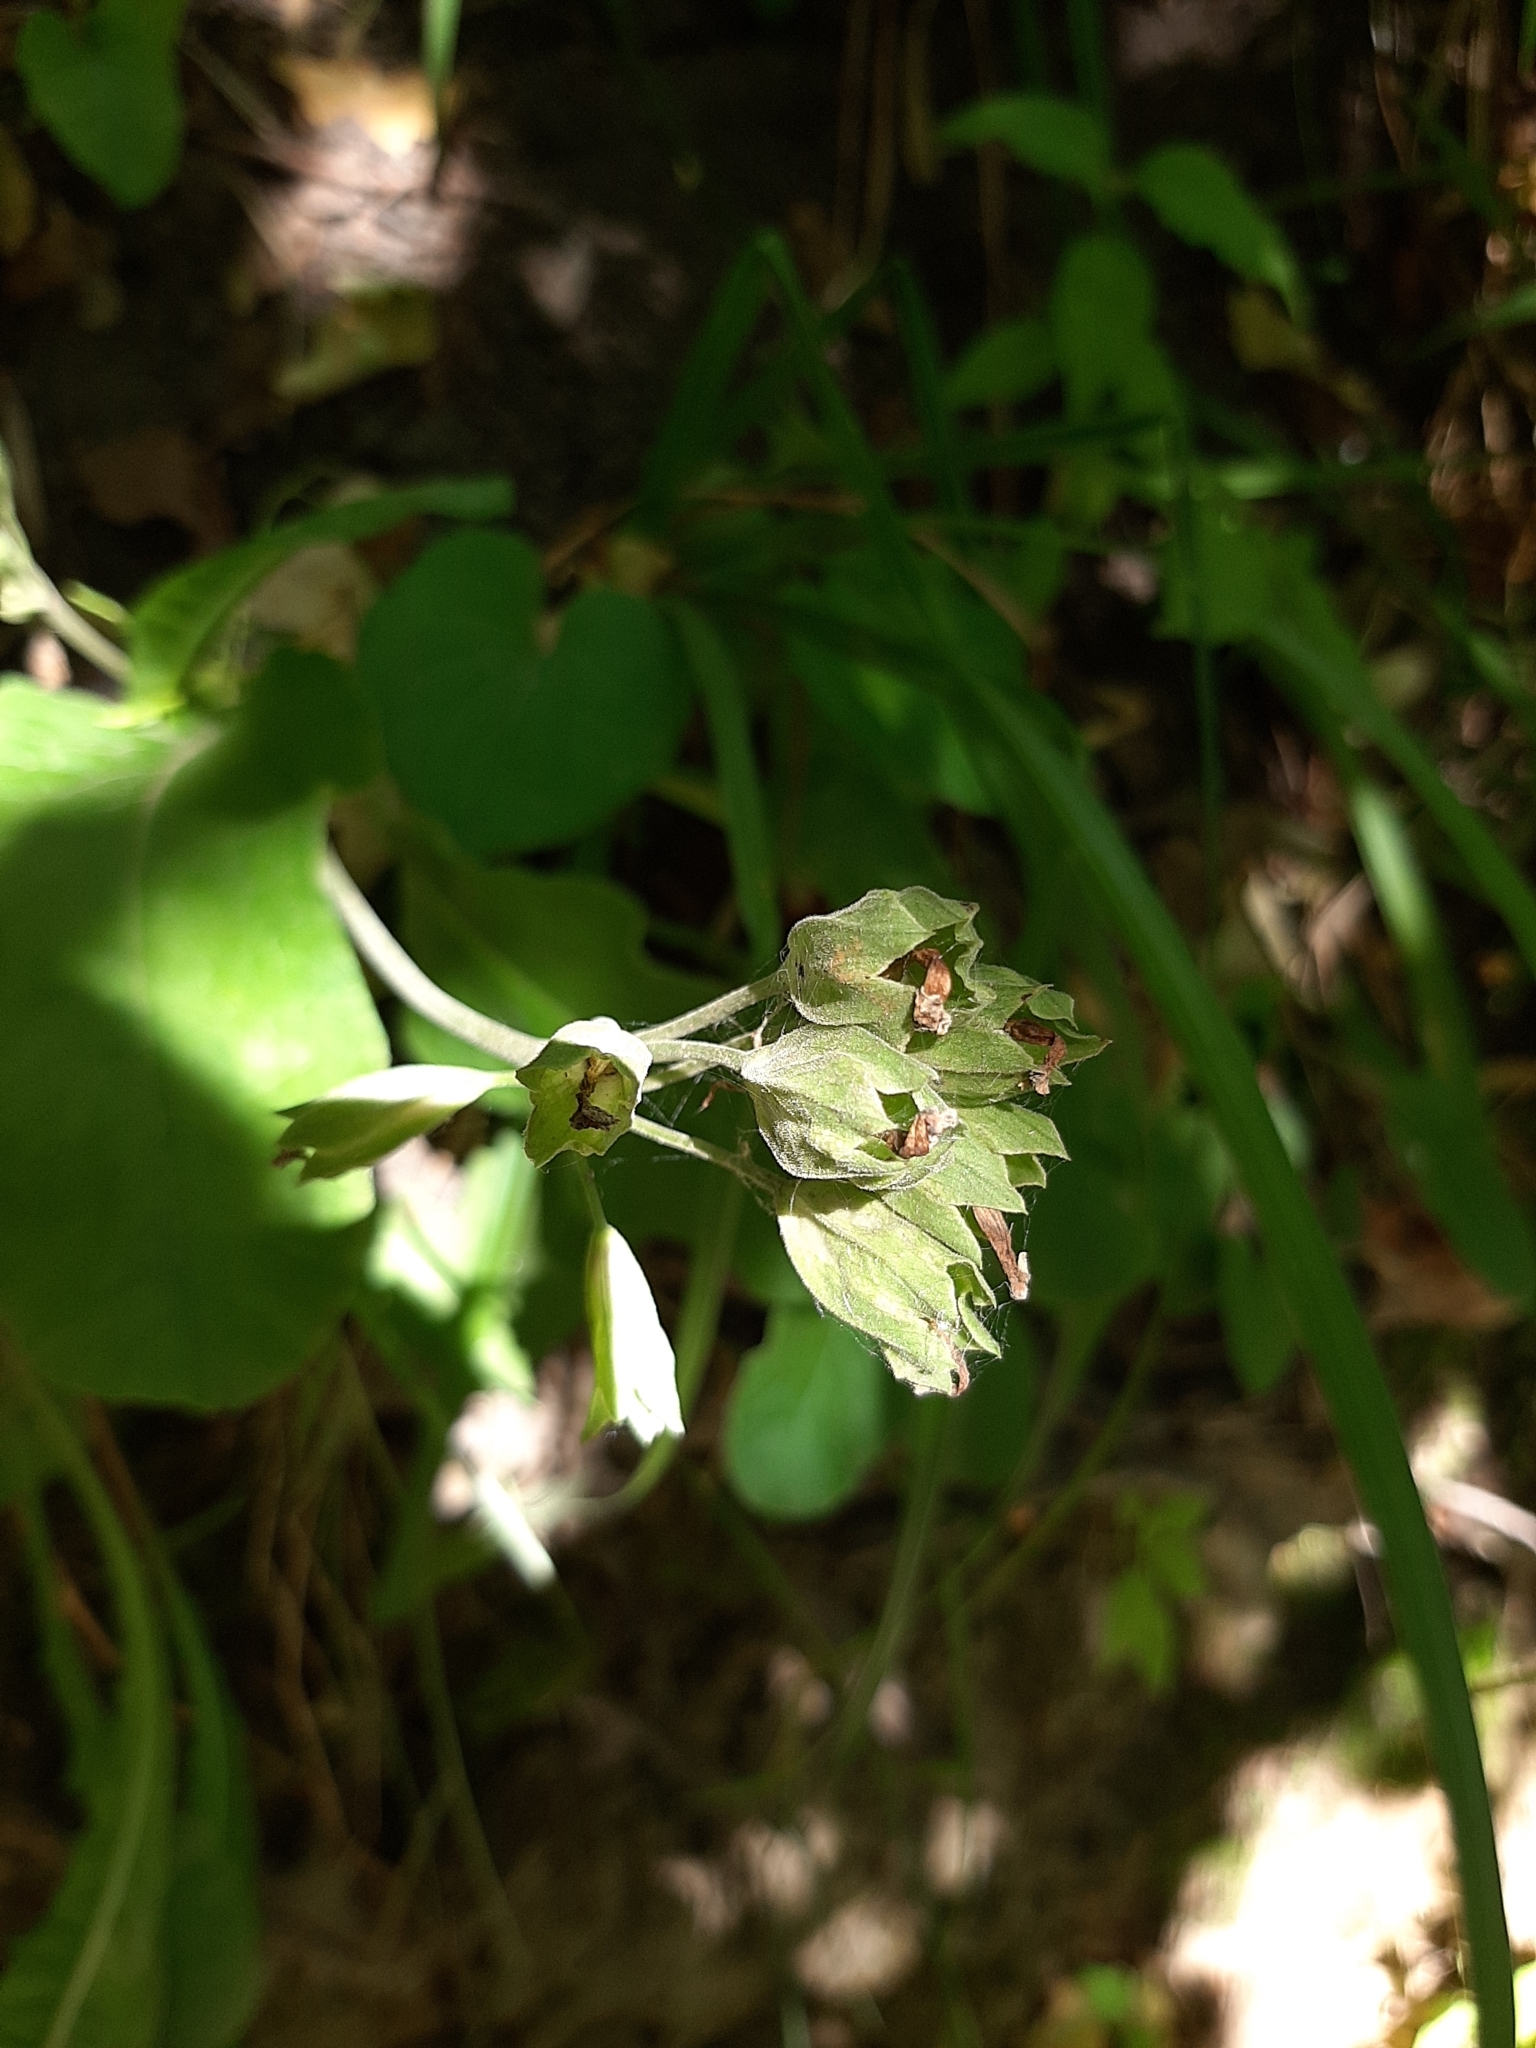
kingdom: Plantae
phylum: Tracheophyta
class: Magnoliopsida
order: Ericales
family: Primulaceae
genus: Primula
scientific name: Primula veris
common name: Cowslip
